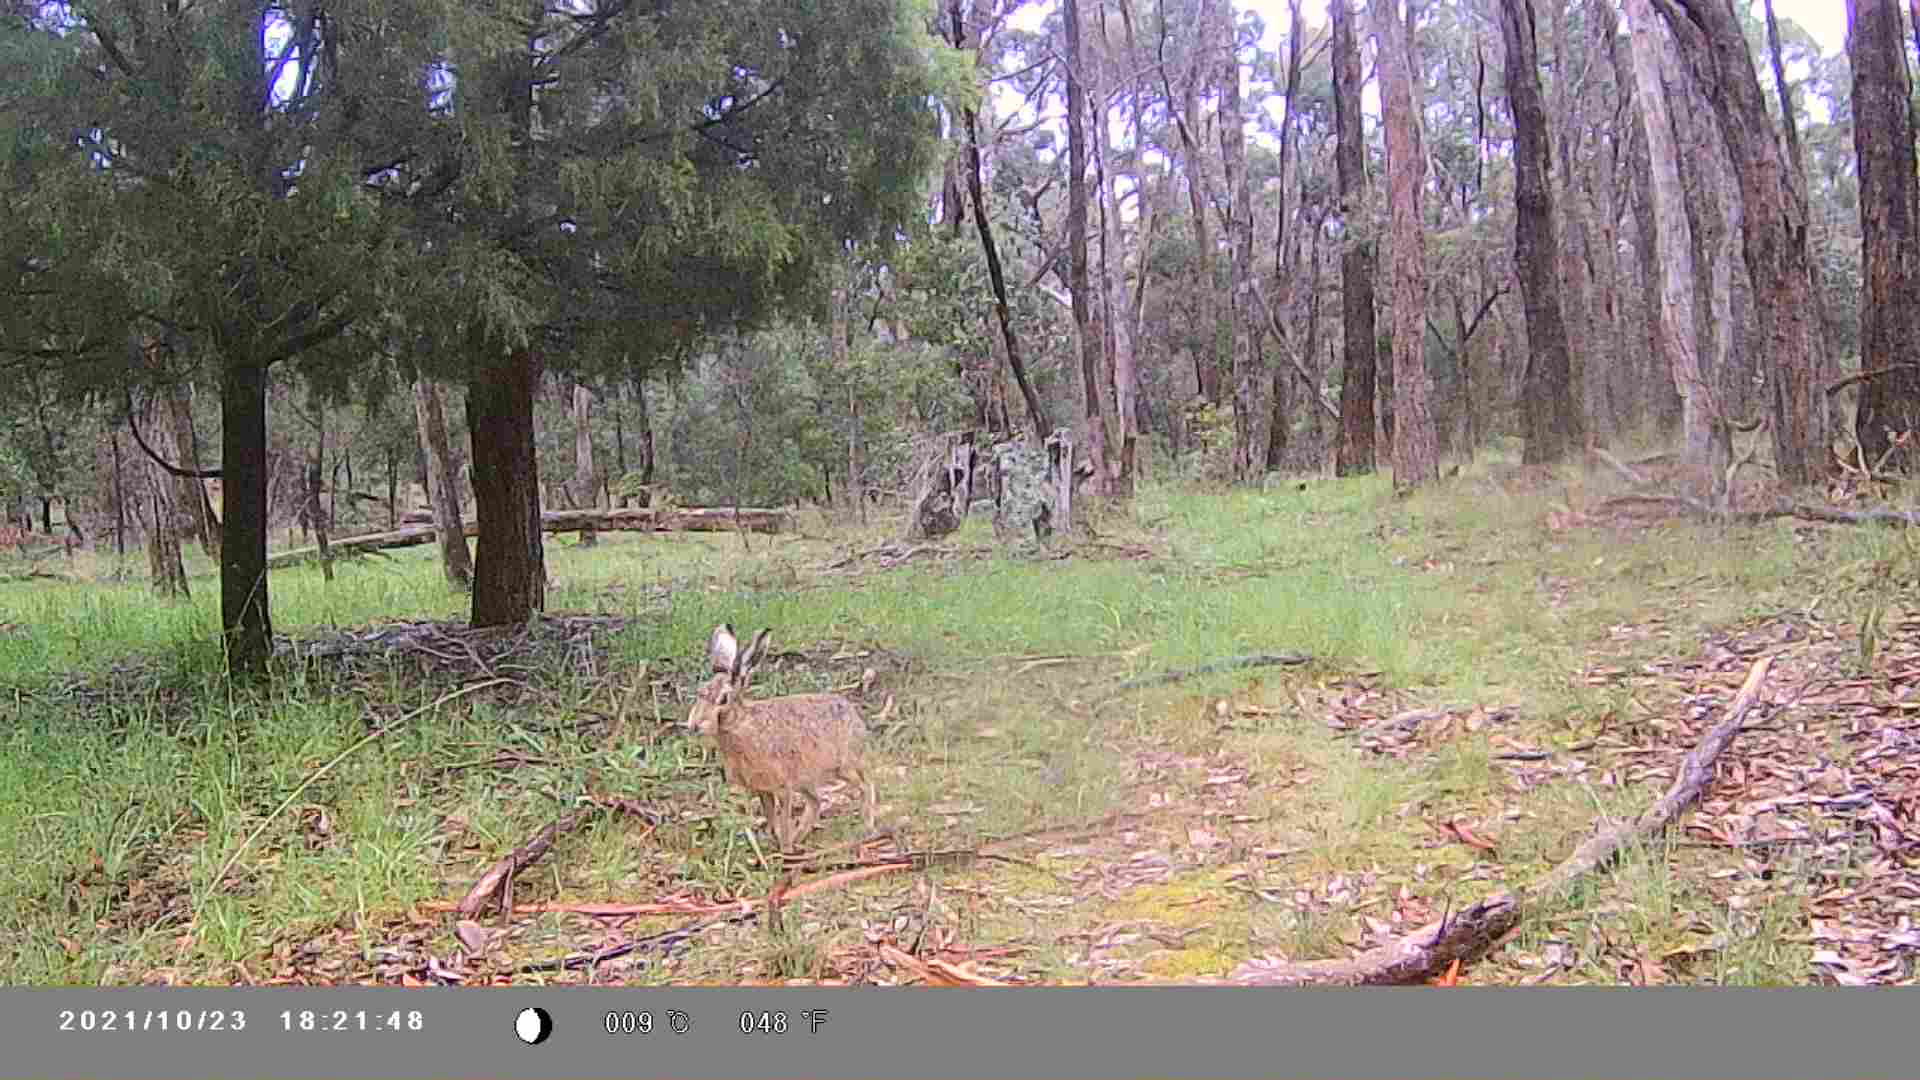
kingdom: Animalia
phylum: Chordata
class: Mammalia
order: Lagomorpha
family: Leporidae
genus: Lepus
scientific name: Lepus europaeus
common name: European hare
